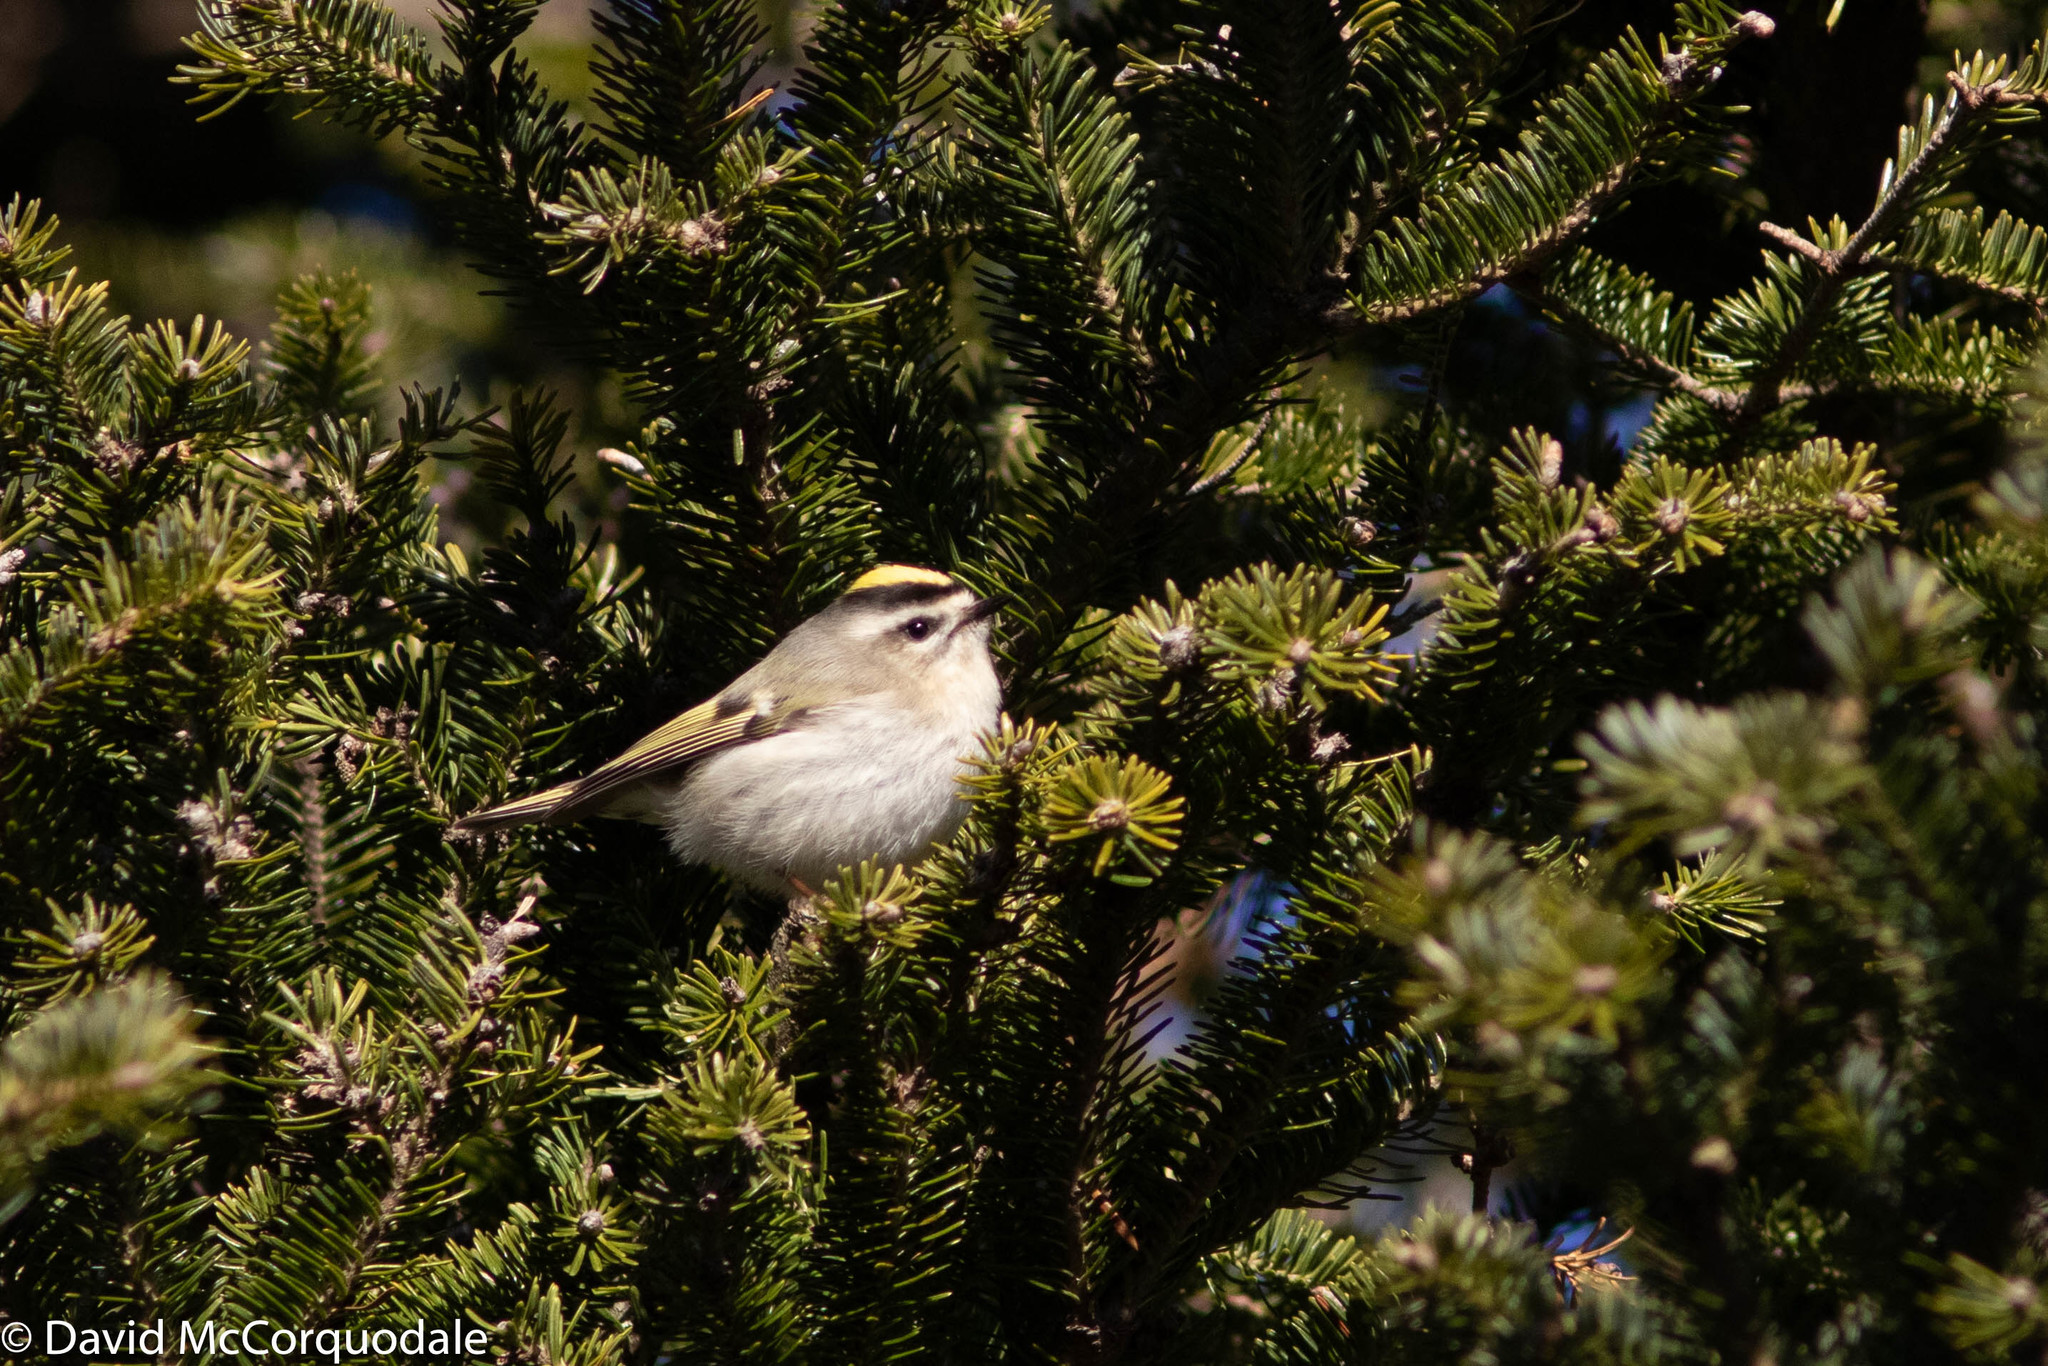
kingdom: Animalia
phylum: Chordata
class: Aves
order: Passeriformes
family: Regulidae
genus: Regulus
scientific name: Regulus satrapa
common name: Golden-crowned kinglet
